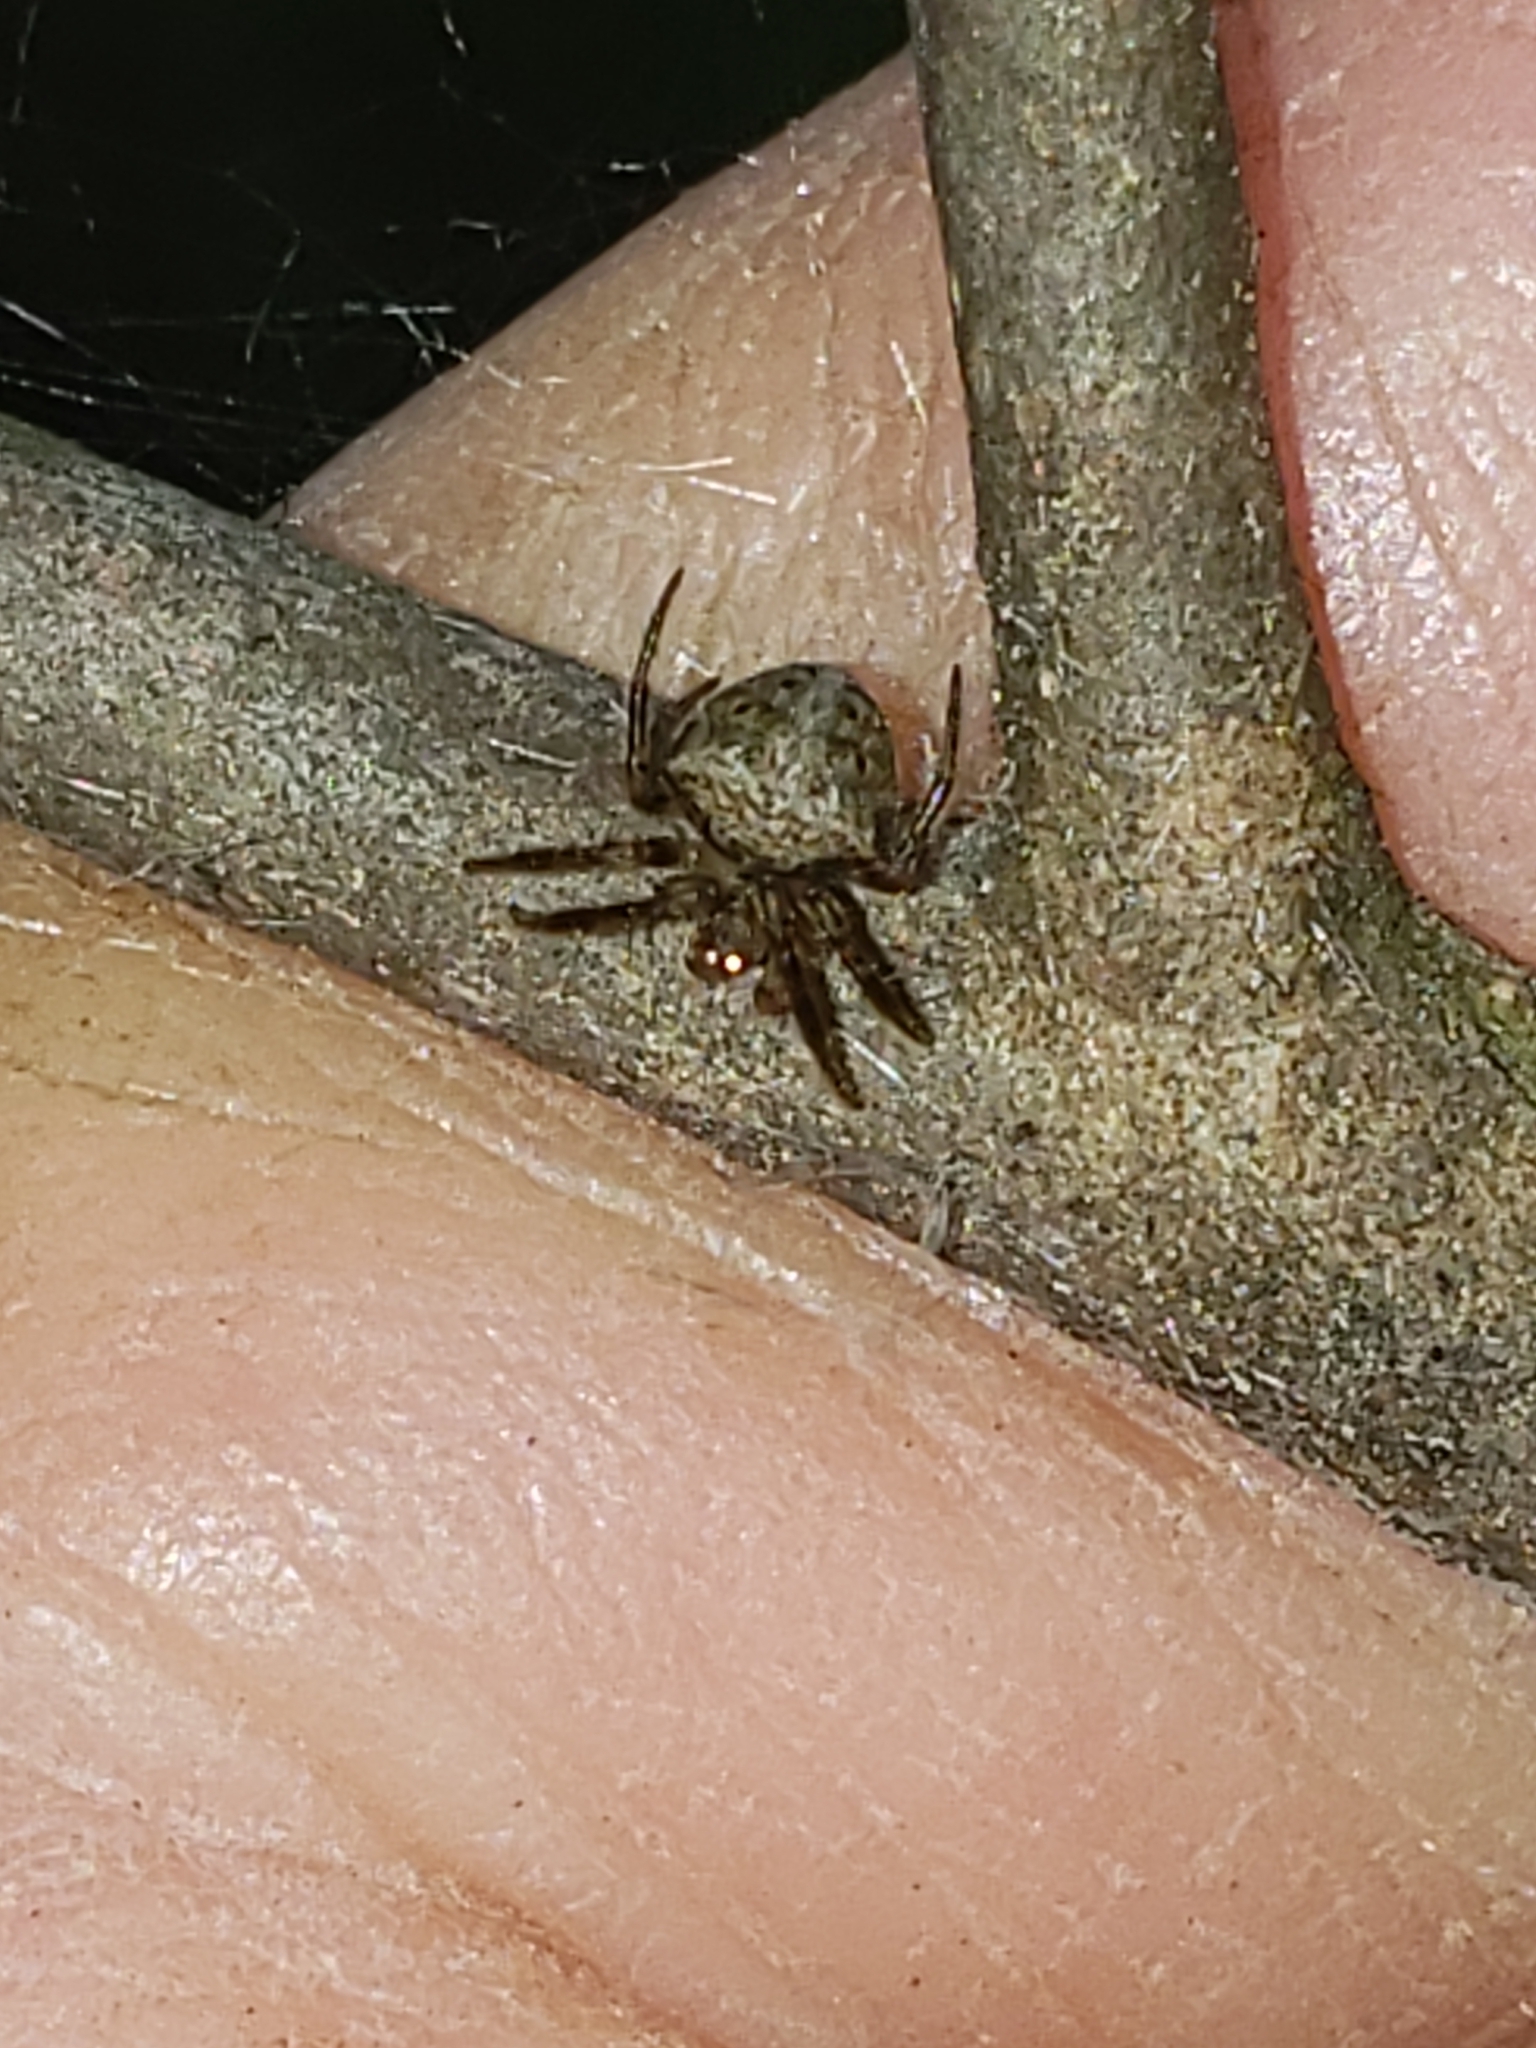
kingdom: Animalia
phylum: Arthropoda
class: Arachnida
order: Araneae
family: Araneidae
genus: Araneus
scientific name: Araneus miniatus
